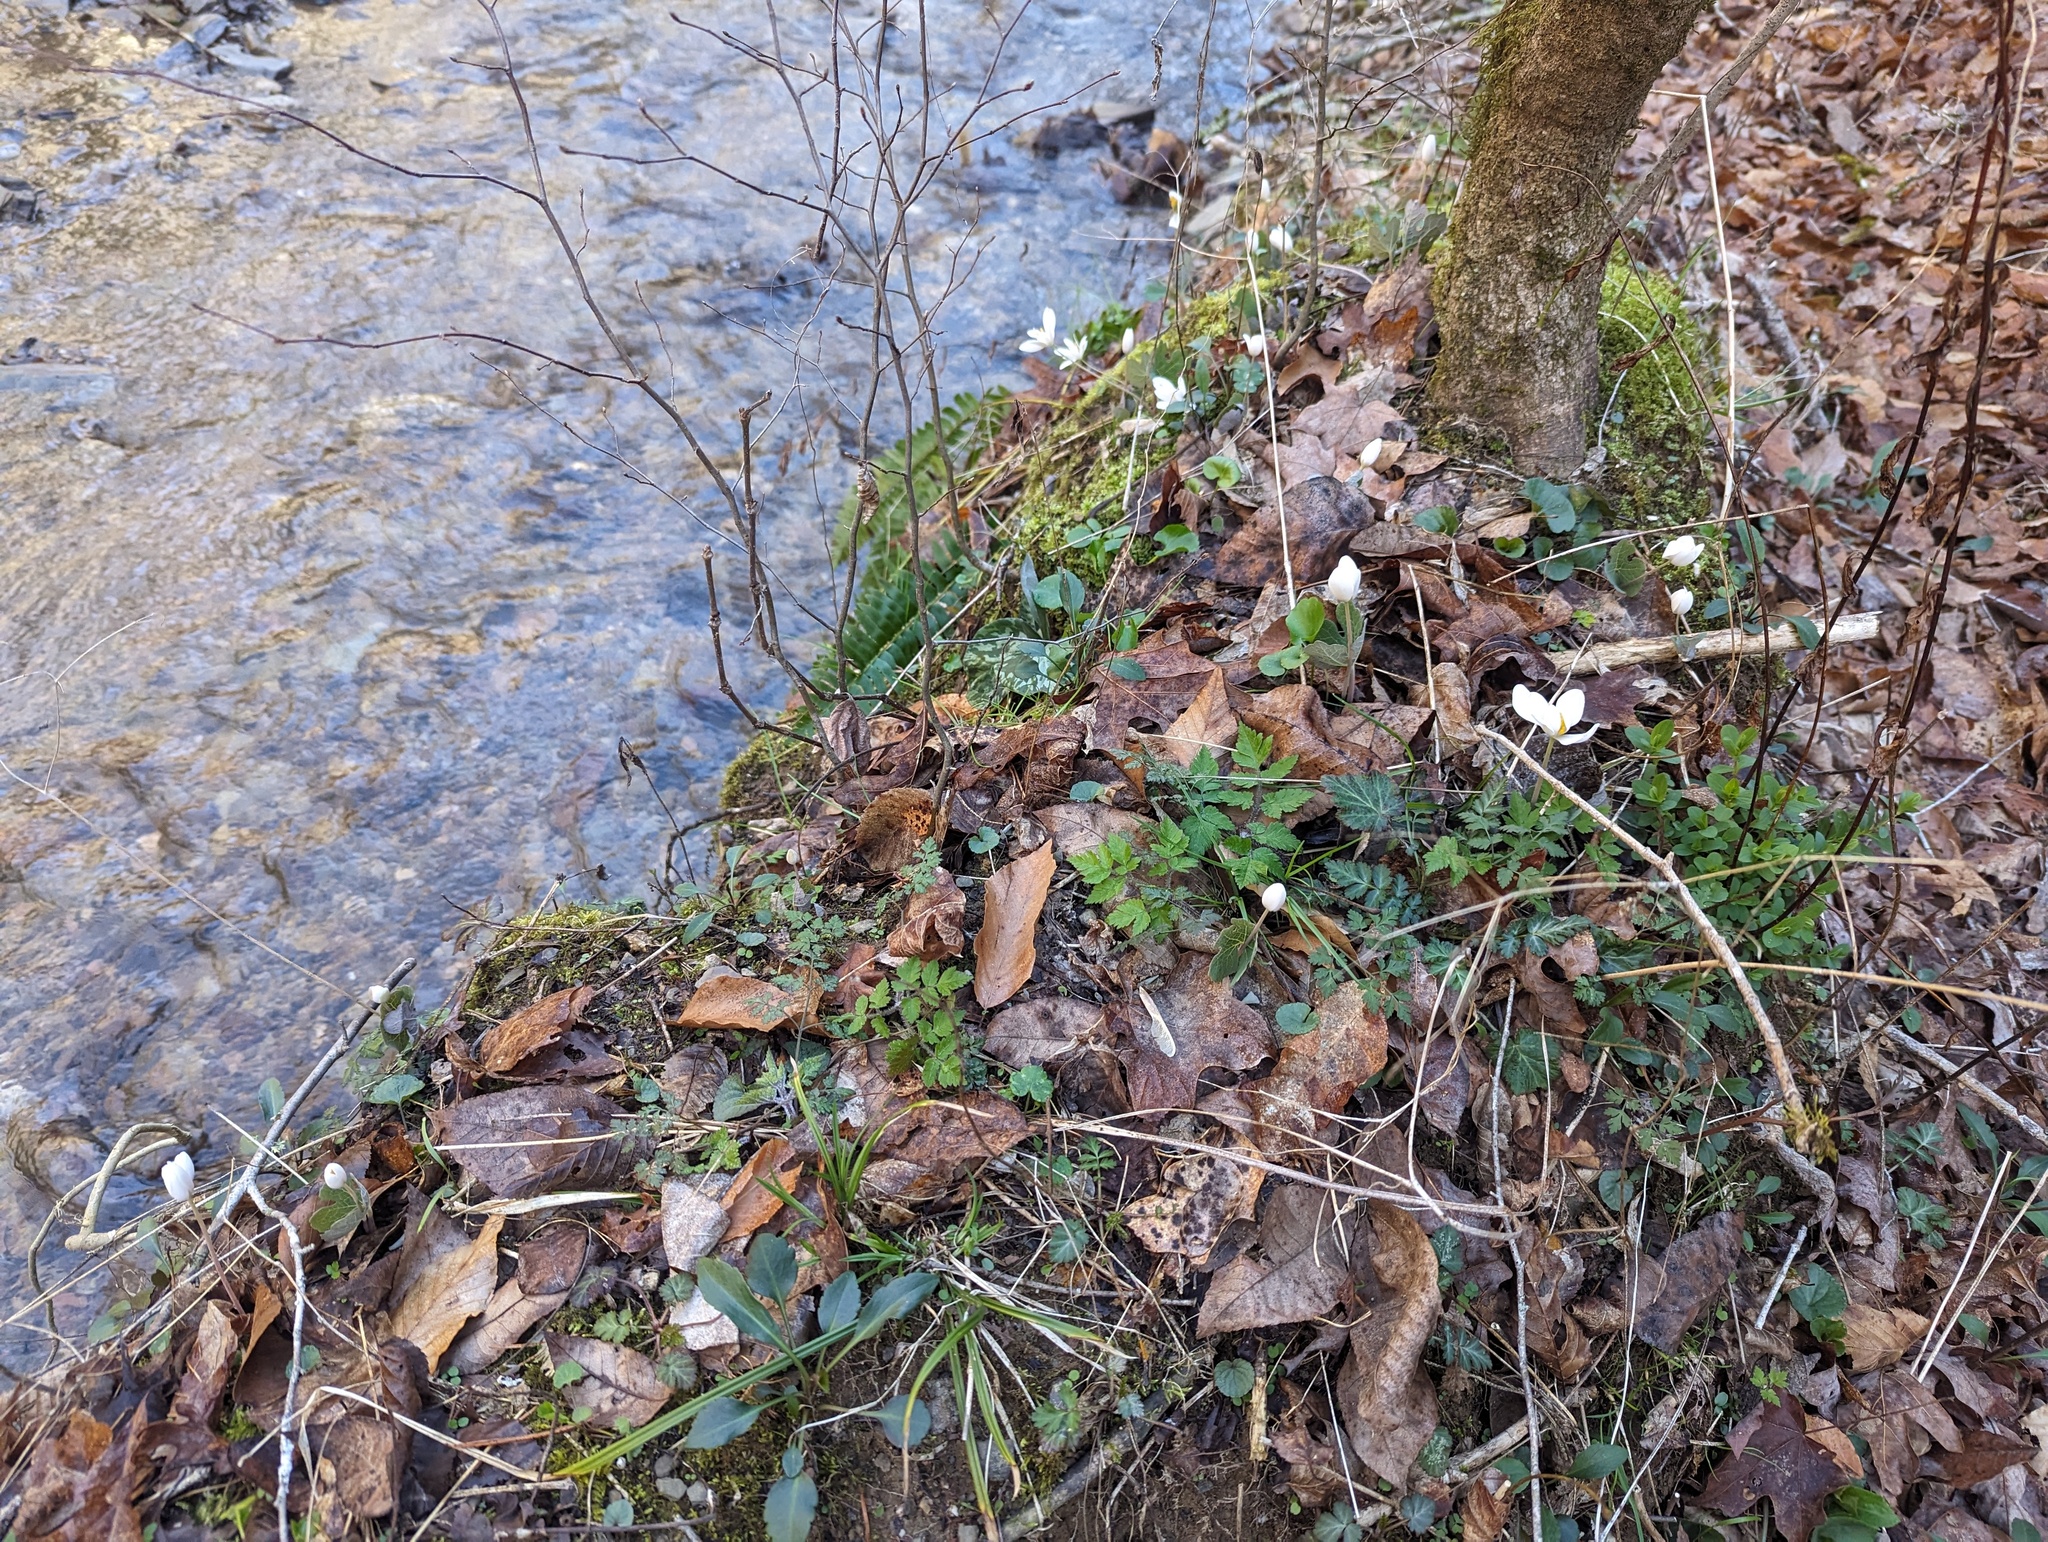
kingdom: Plantae
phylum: Tracheophyta
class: Magnoliopsida
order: Ranunculales
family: Papaveraceae
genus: Sanguinaria
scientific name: Sanguinaria canadensis
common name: Bloodroot
